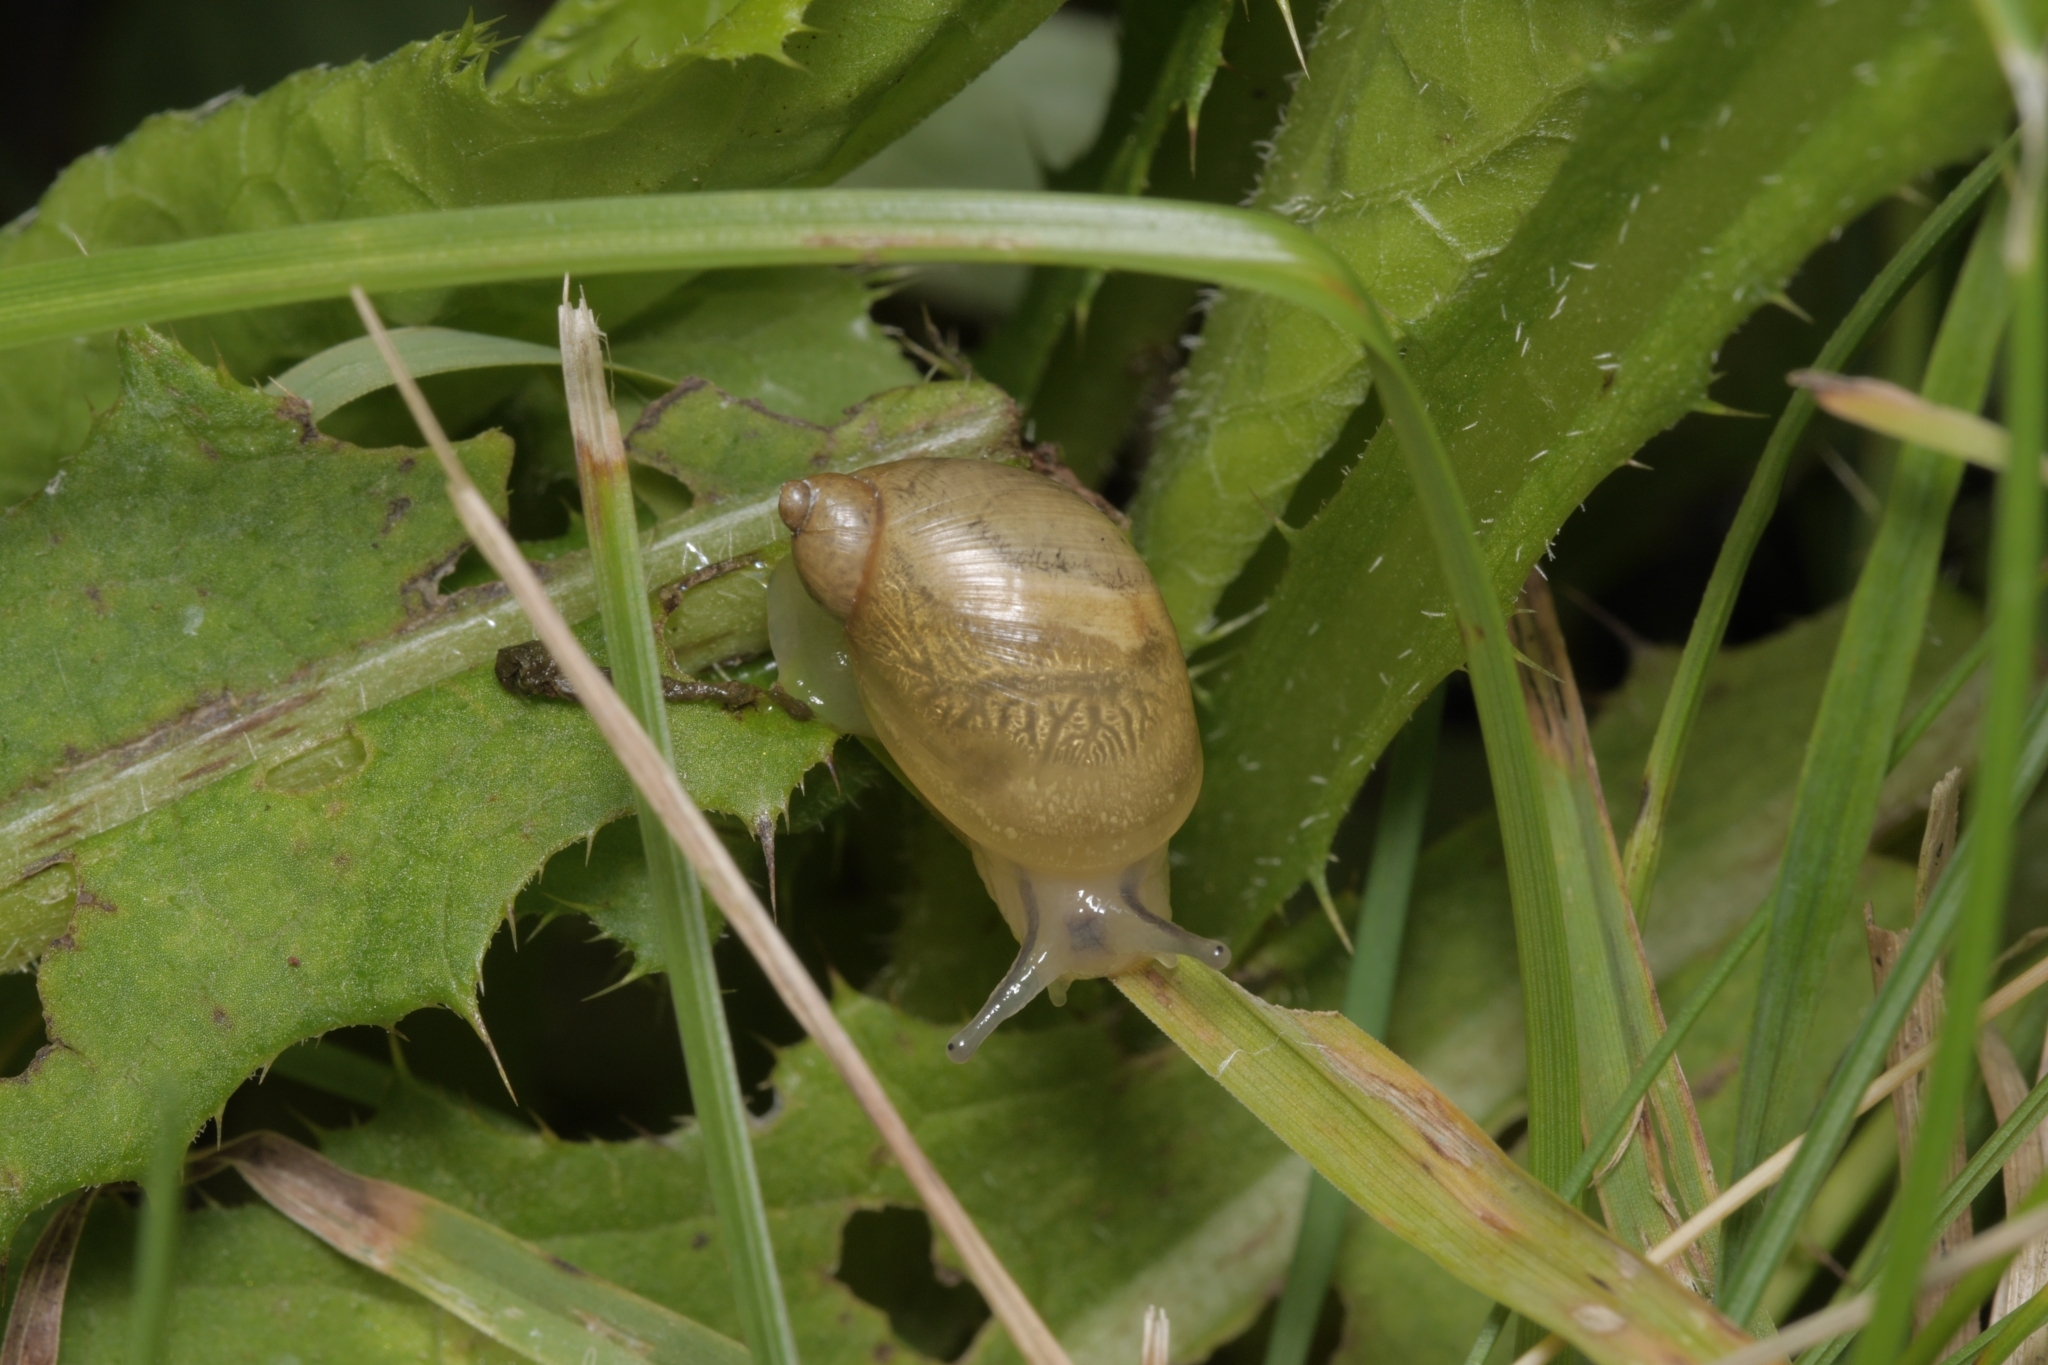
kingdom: Animalia
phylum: Mollusca
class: Gastropoda
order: Stylommatophora
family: Succineidae
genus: Succinea
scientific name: Succinea putris
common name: European ambersnail
